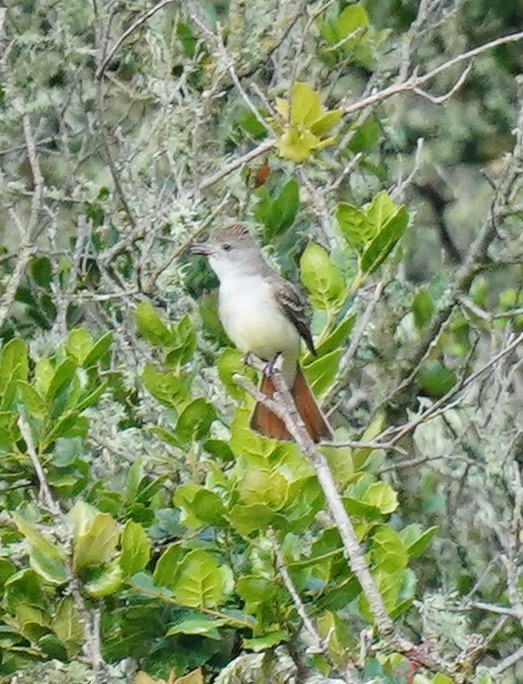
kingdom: Animalia
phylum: Chordata
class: Aves
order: Passeriformes
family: Tyrannidae
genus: Myiarchus
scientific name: Myiarchus cinerascens
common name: Ash-throated flycatcher
